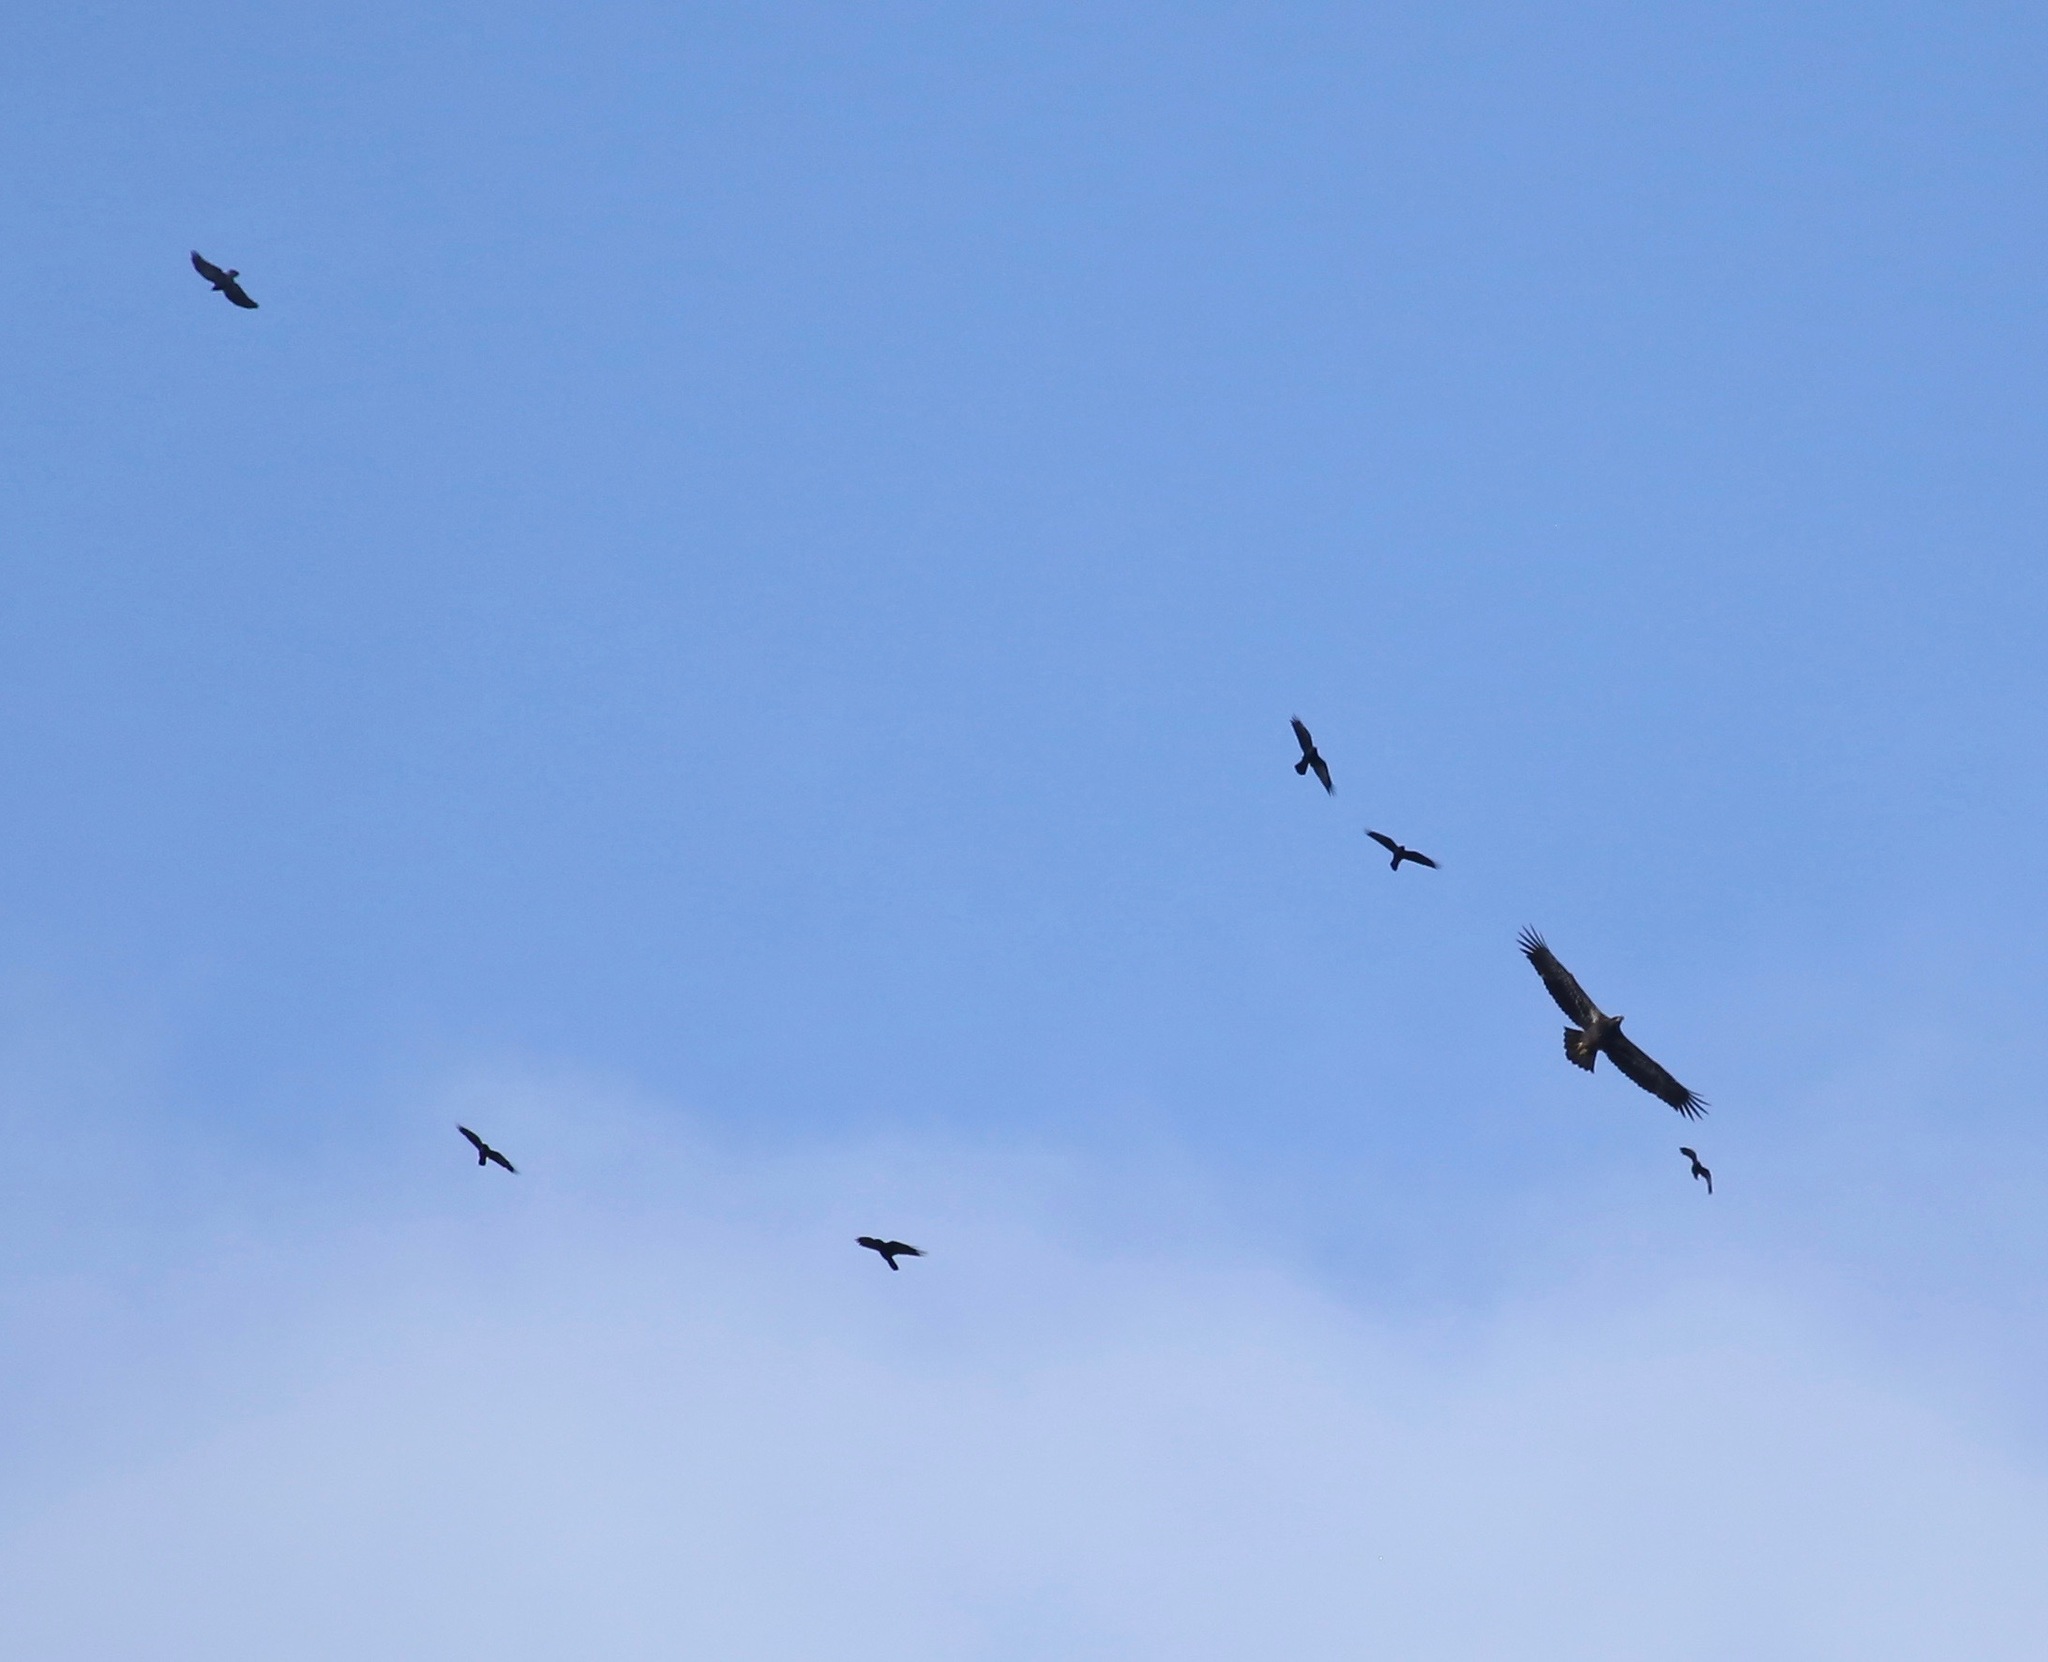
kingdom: Animalia
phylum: Chordata
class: Aves
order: Accipitriformes
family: Accipitridae
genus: Haliaeetus
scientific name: Haliaeetus leucocephalus
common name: Bald eagle
